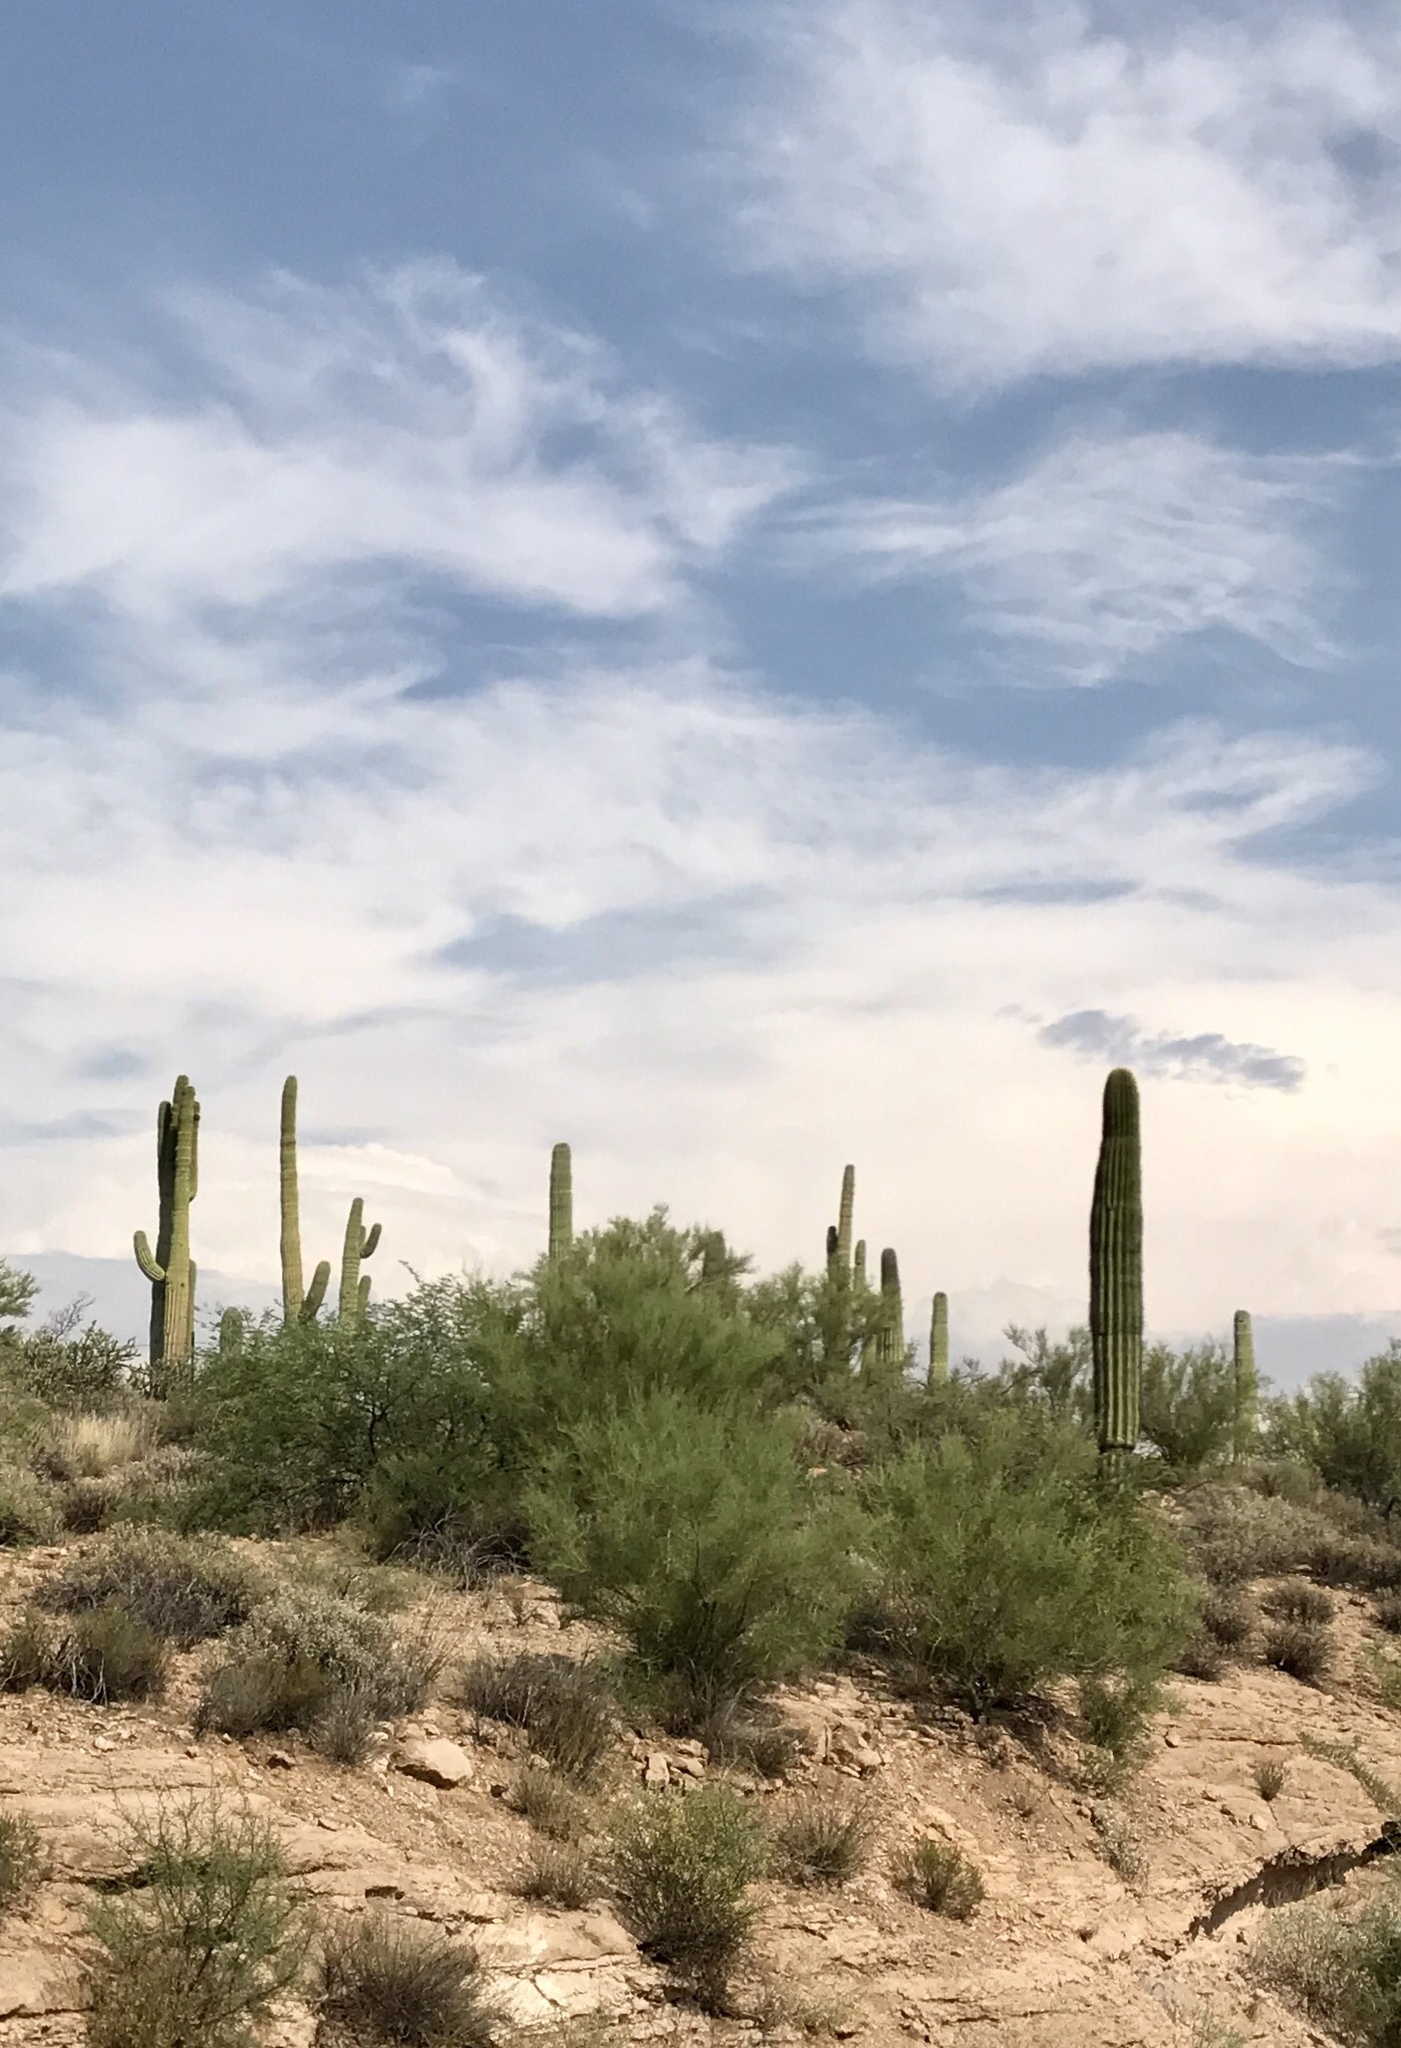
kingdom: Plantae
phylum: Tracheophyta
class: Magnoliopsida
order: Caryophyllales
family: Cactaceae
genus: Carnegiea
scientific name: Carnegiea gigantea
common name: Saguaro
